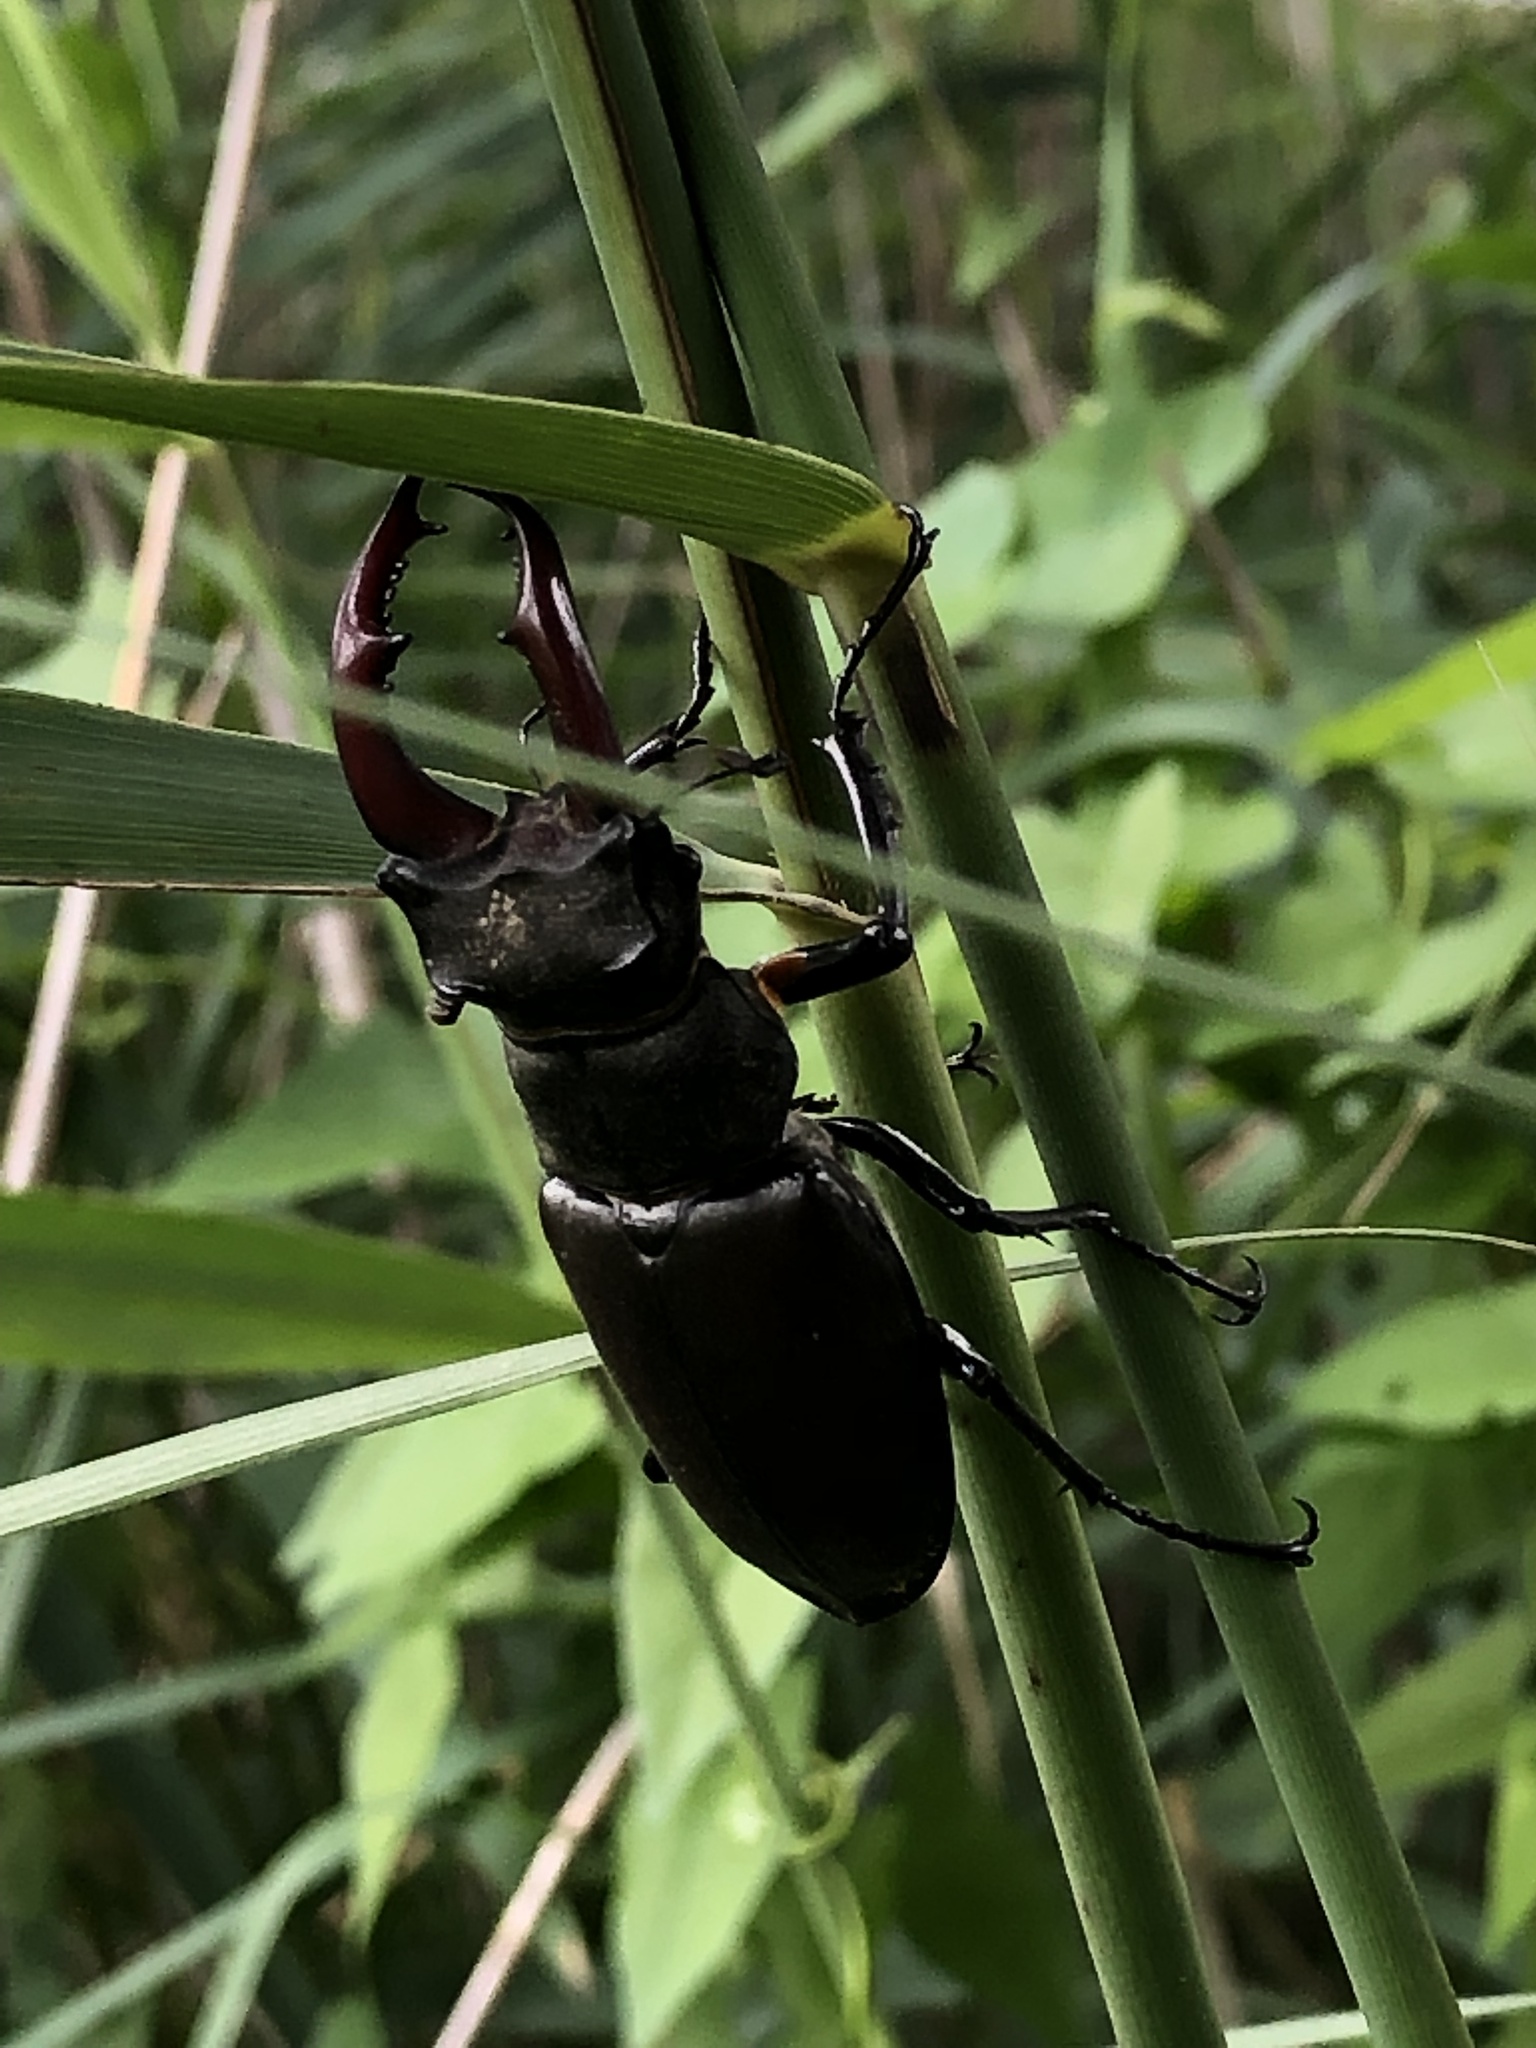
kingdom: Animalia
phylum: Arthropoda
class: Insecta
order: Coleoptera
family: Lucanidae
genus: Lucanus
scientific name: Lucanus cervus
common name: Stag beetle
